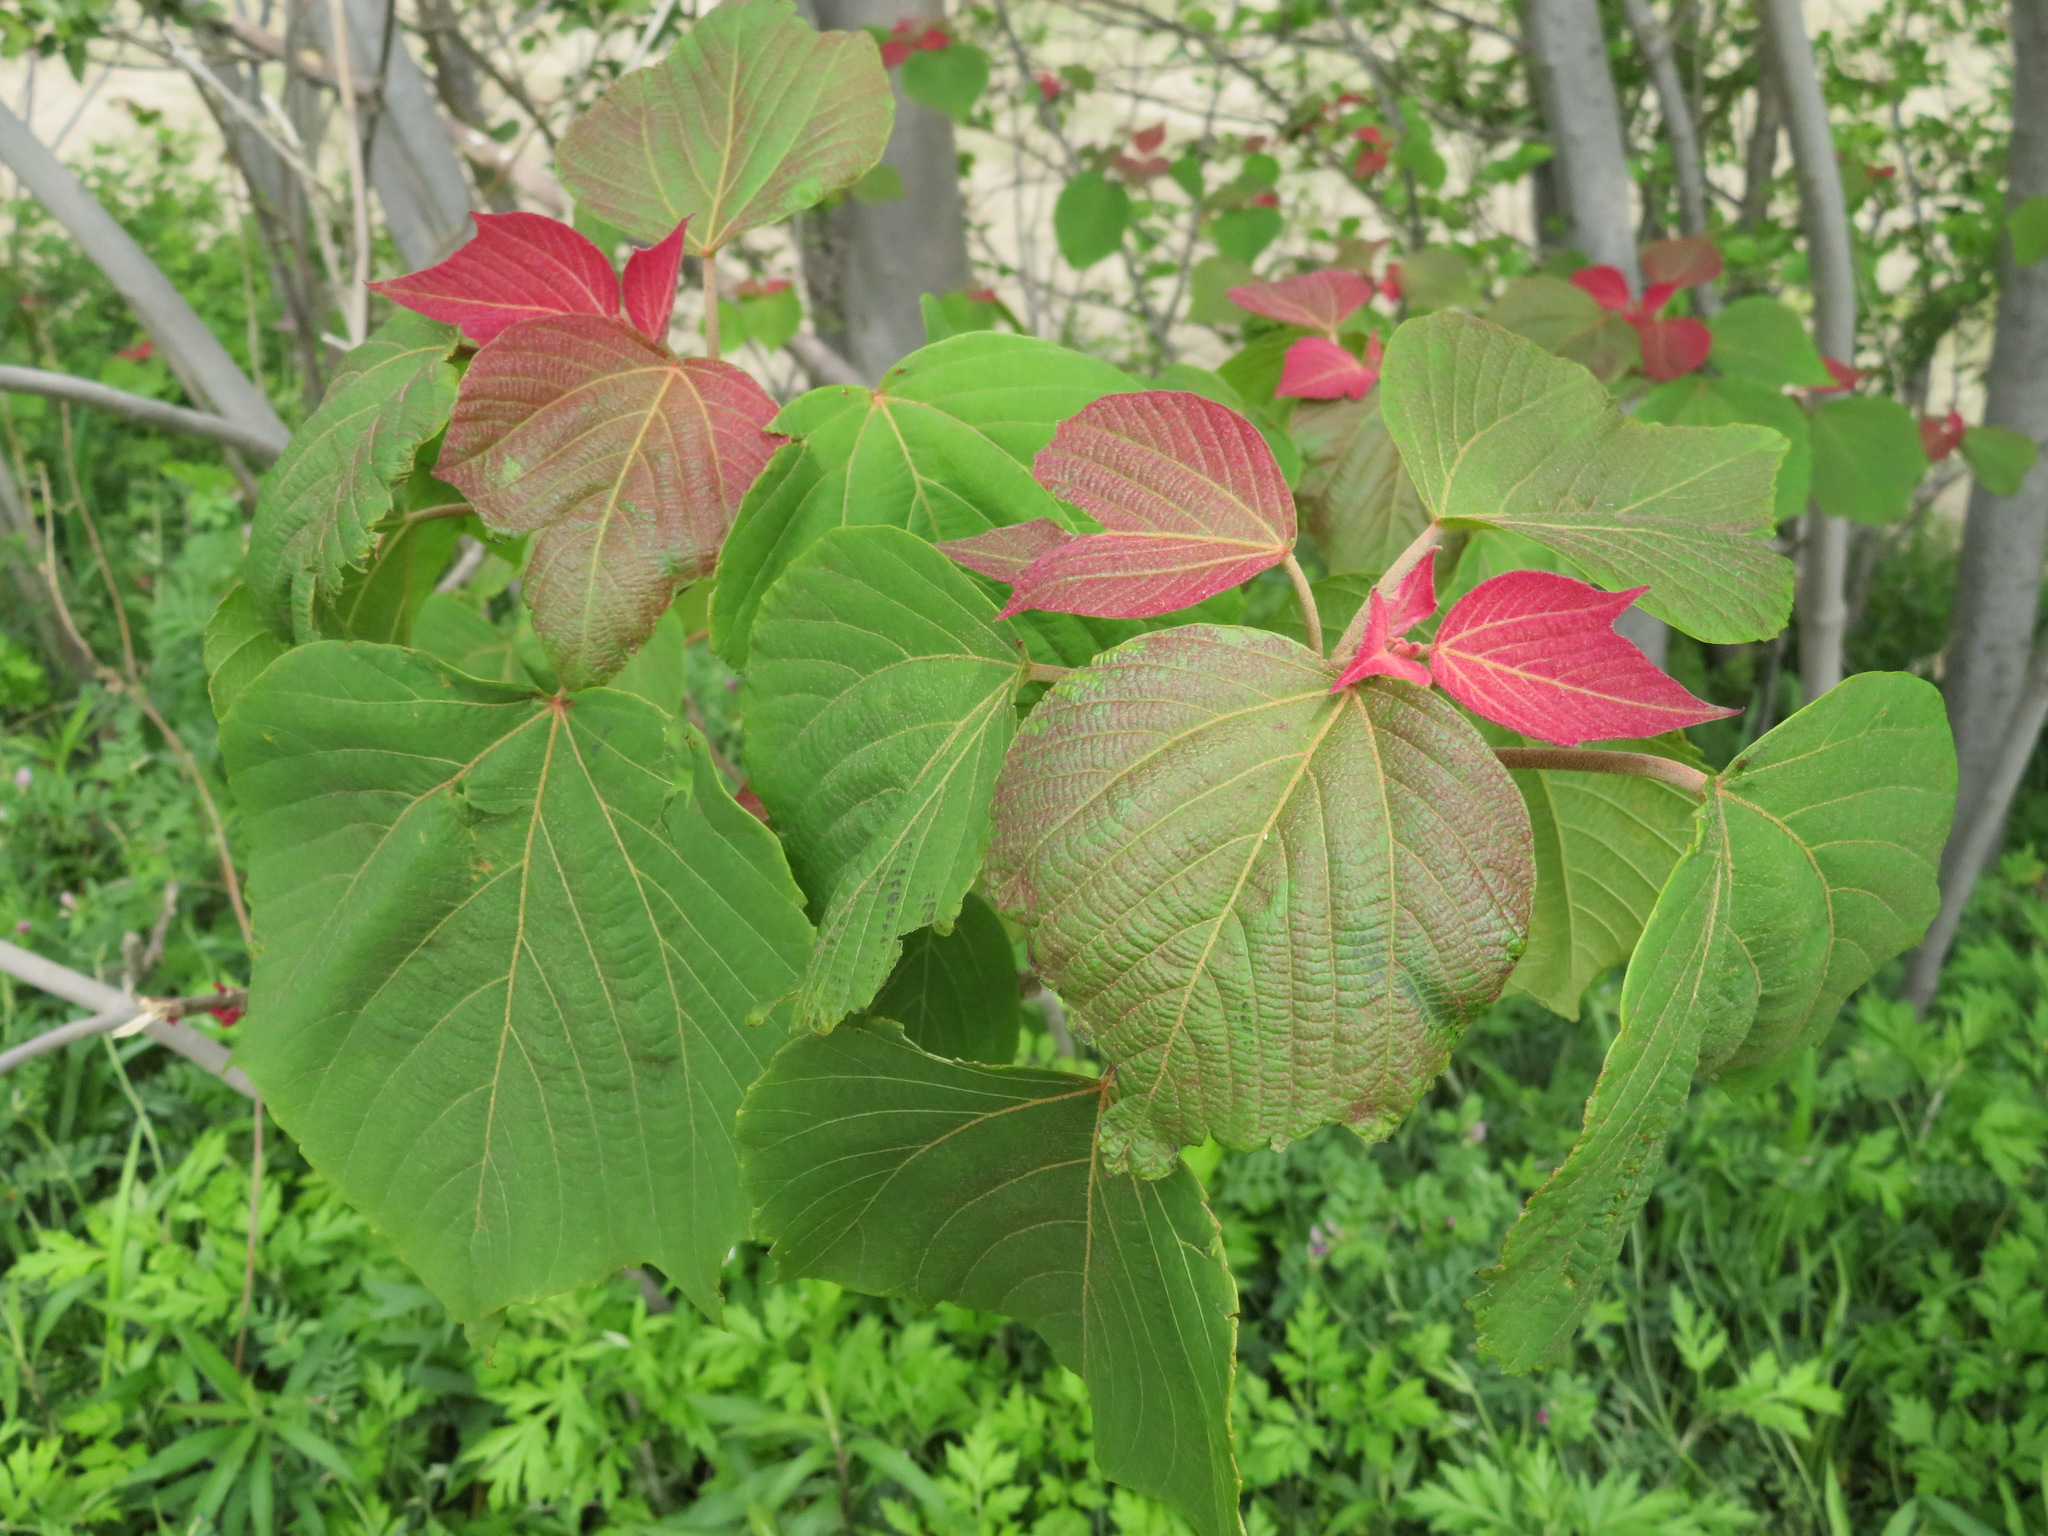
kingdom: Plantae
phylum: Tracheophyta
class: Magnoliopsida
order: Malpighiales
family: Euphorbiaceae
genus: Mallotus
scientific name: Mallotus japonicus
